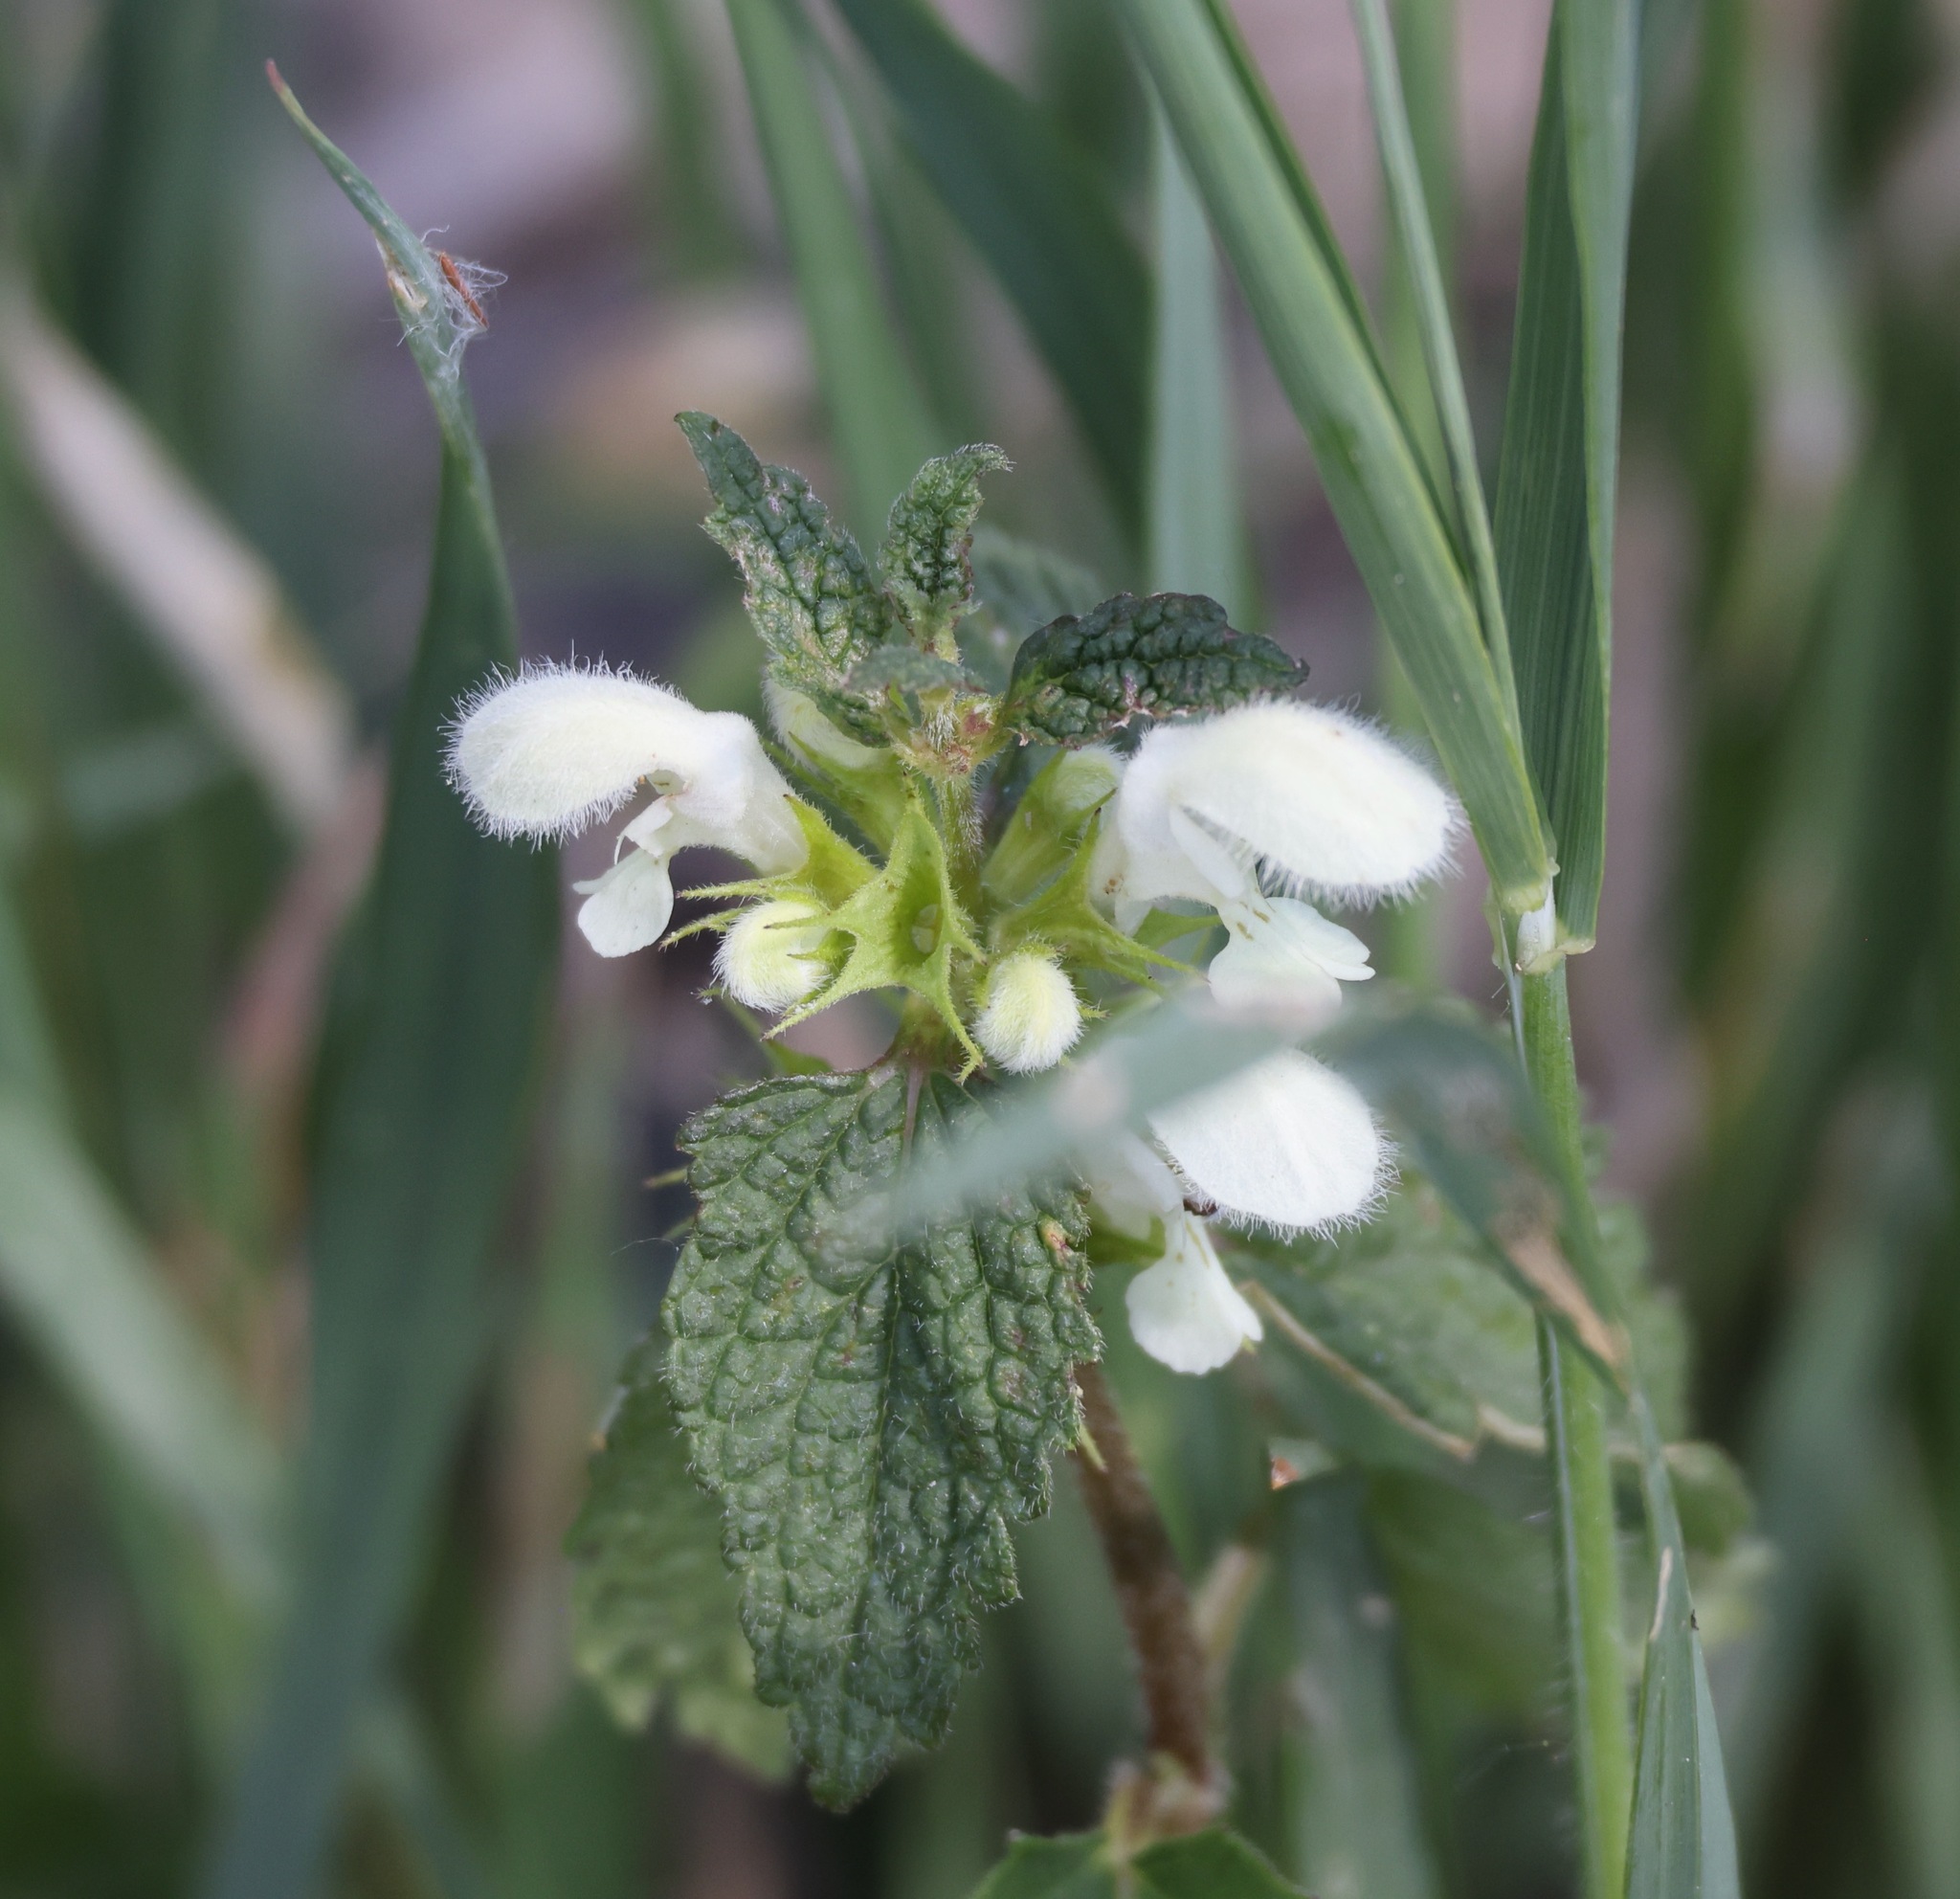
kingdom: Plantae
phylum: Tracheophyta
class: Magnoliopsida
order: Lamiales
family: Lamiaceae
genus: Lamium
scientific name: Lamium album
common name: White dead-nettle
